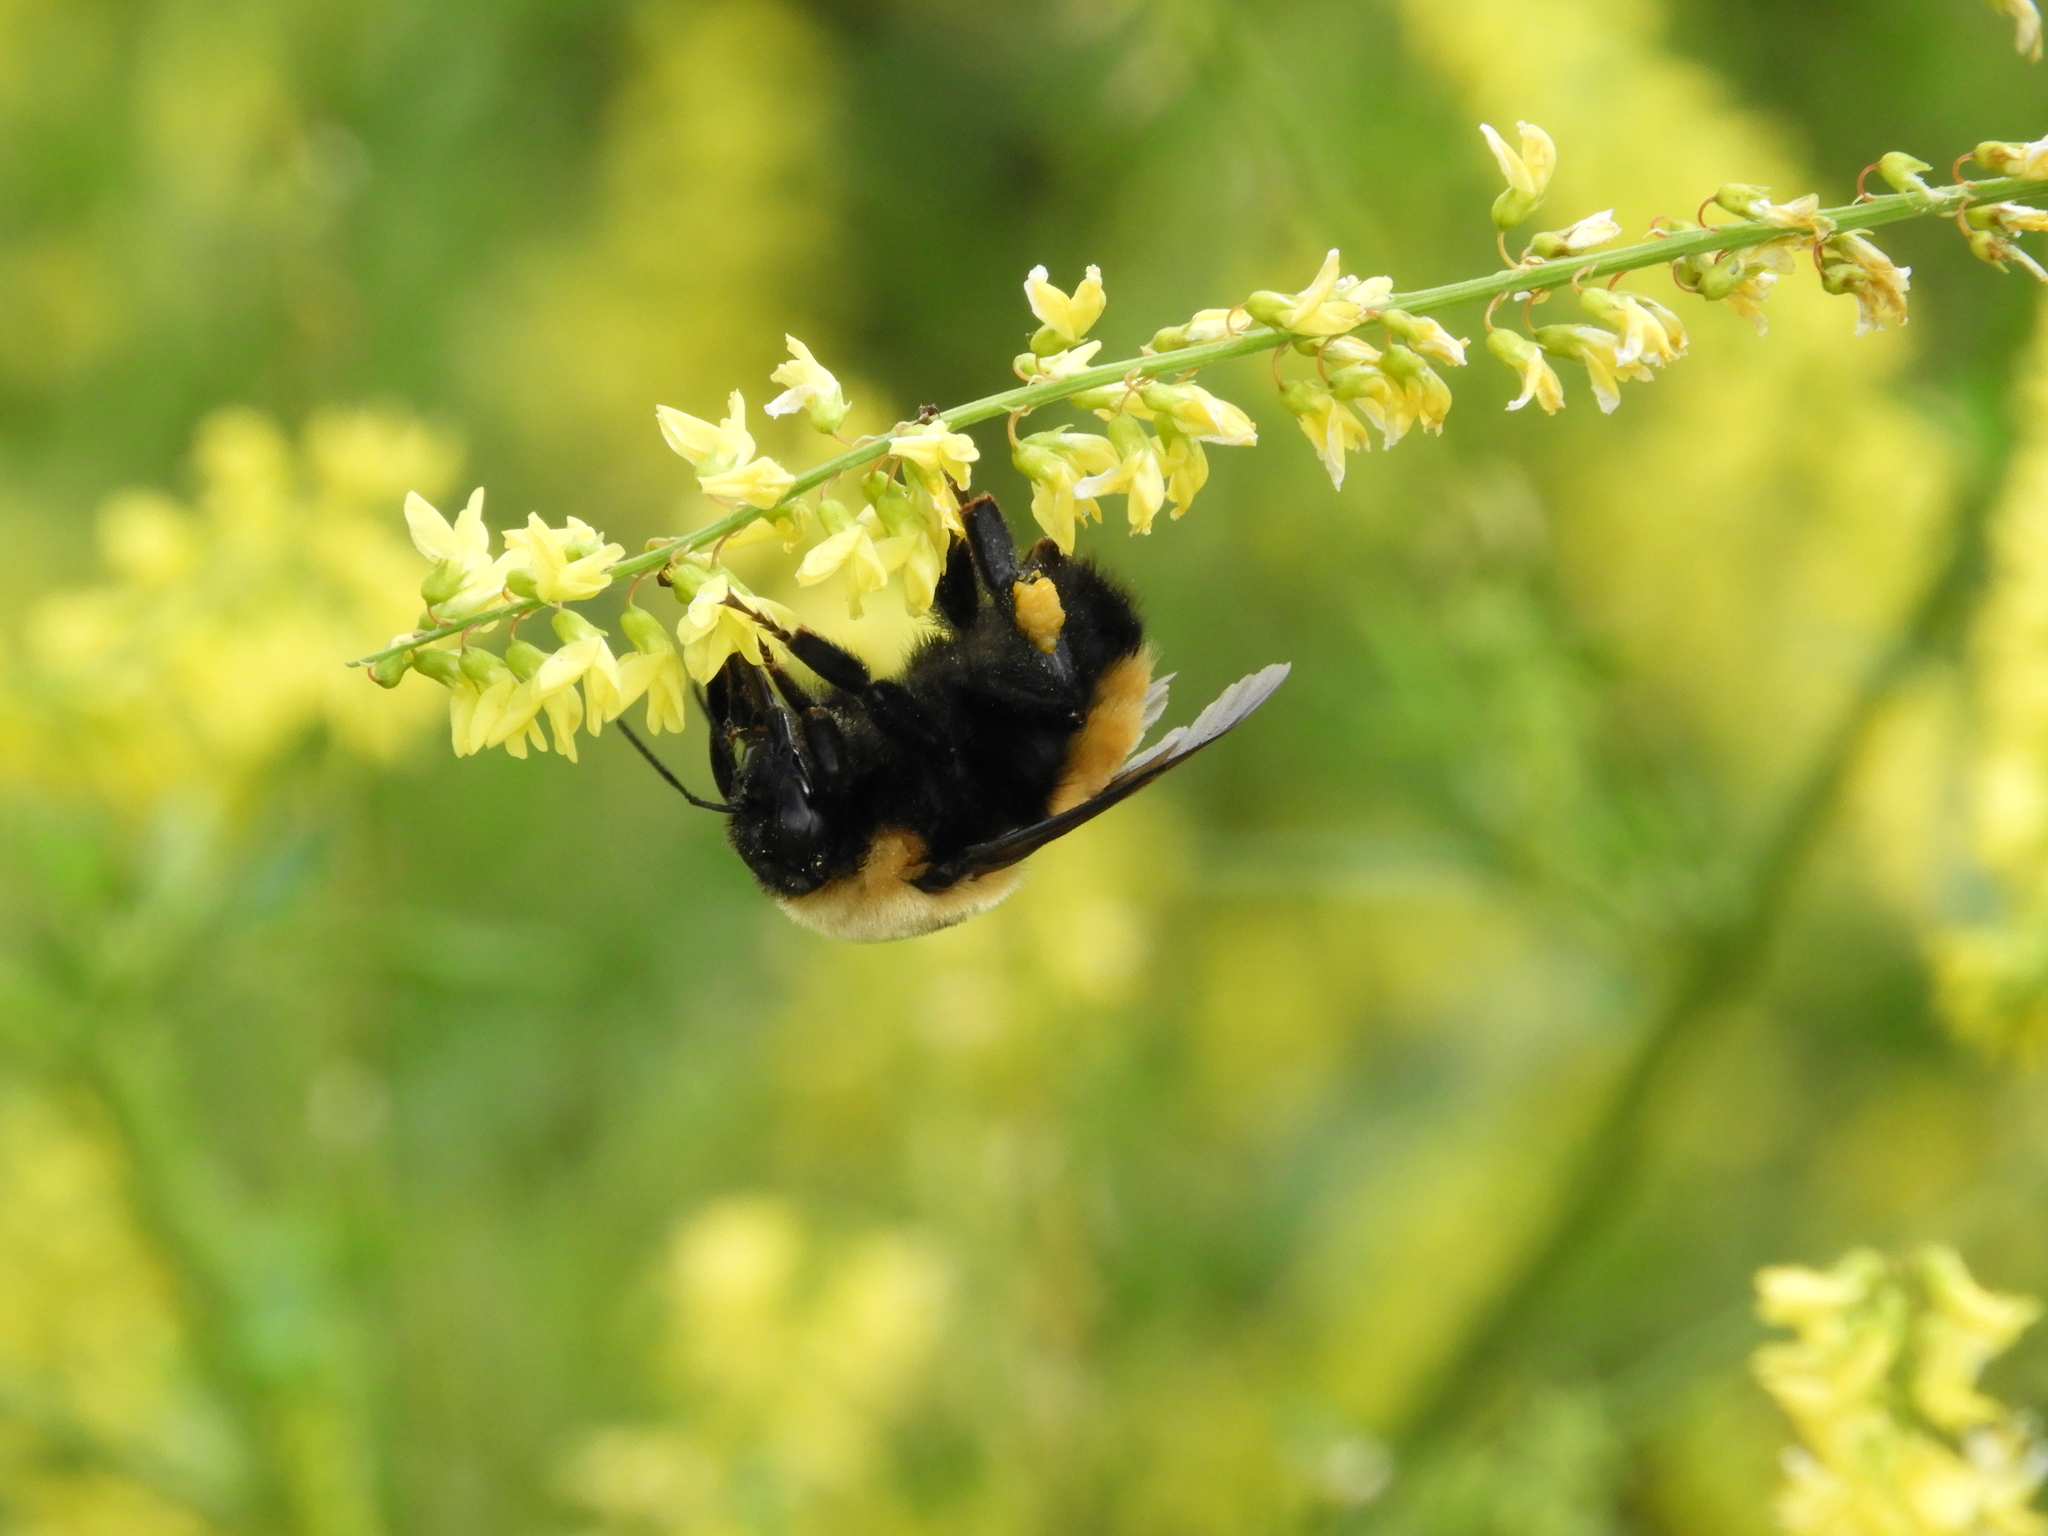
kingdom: Animalia
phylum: Arthropoda
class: Insecta
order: Hymenoptera
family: Apidae
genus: Bombus
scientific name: Bombus nevadensis
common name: Nevada bumble bee
